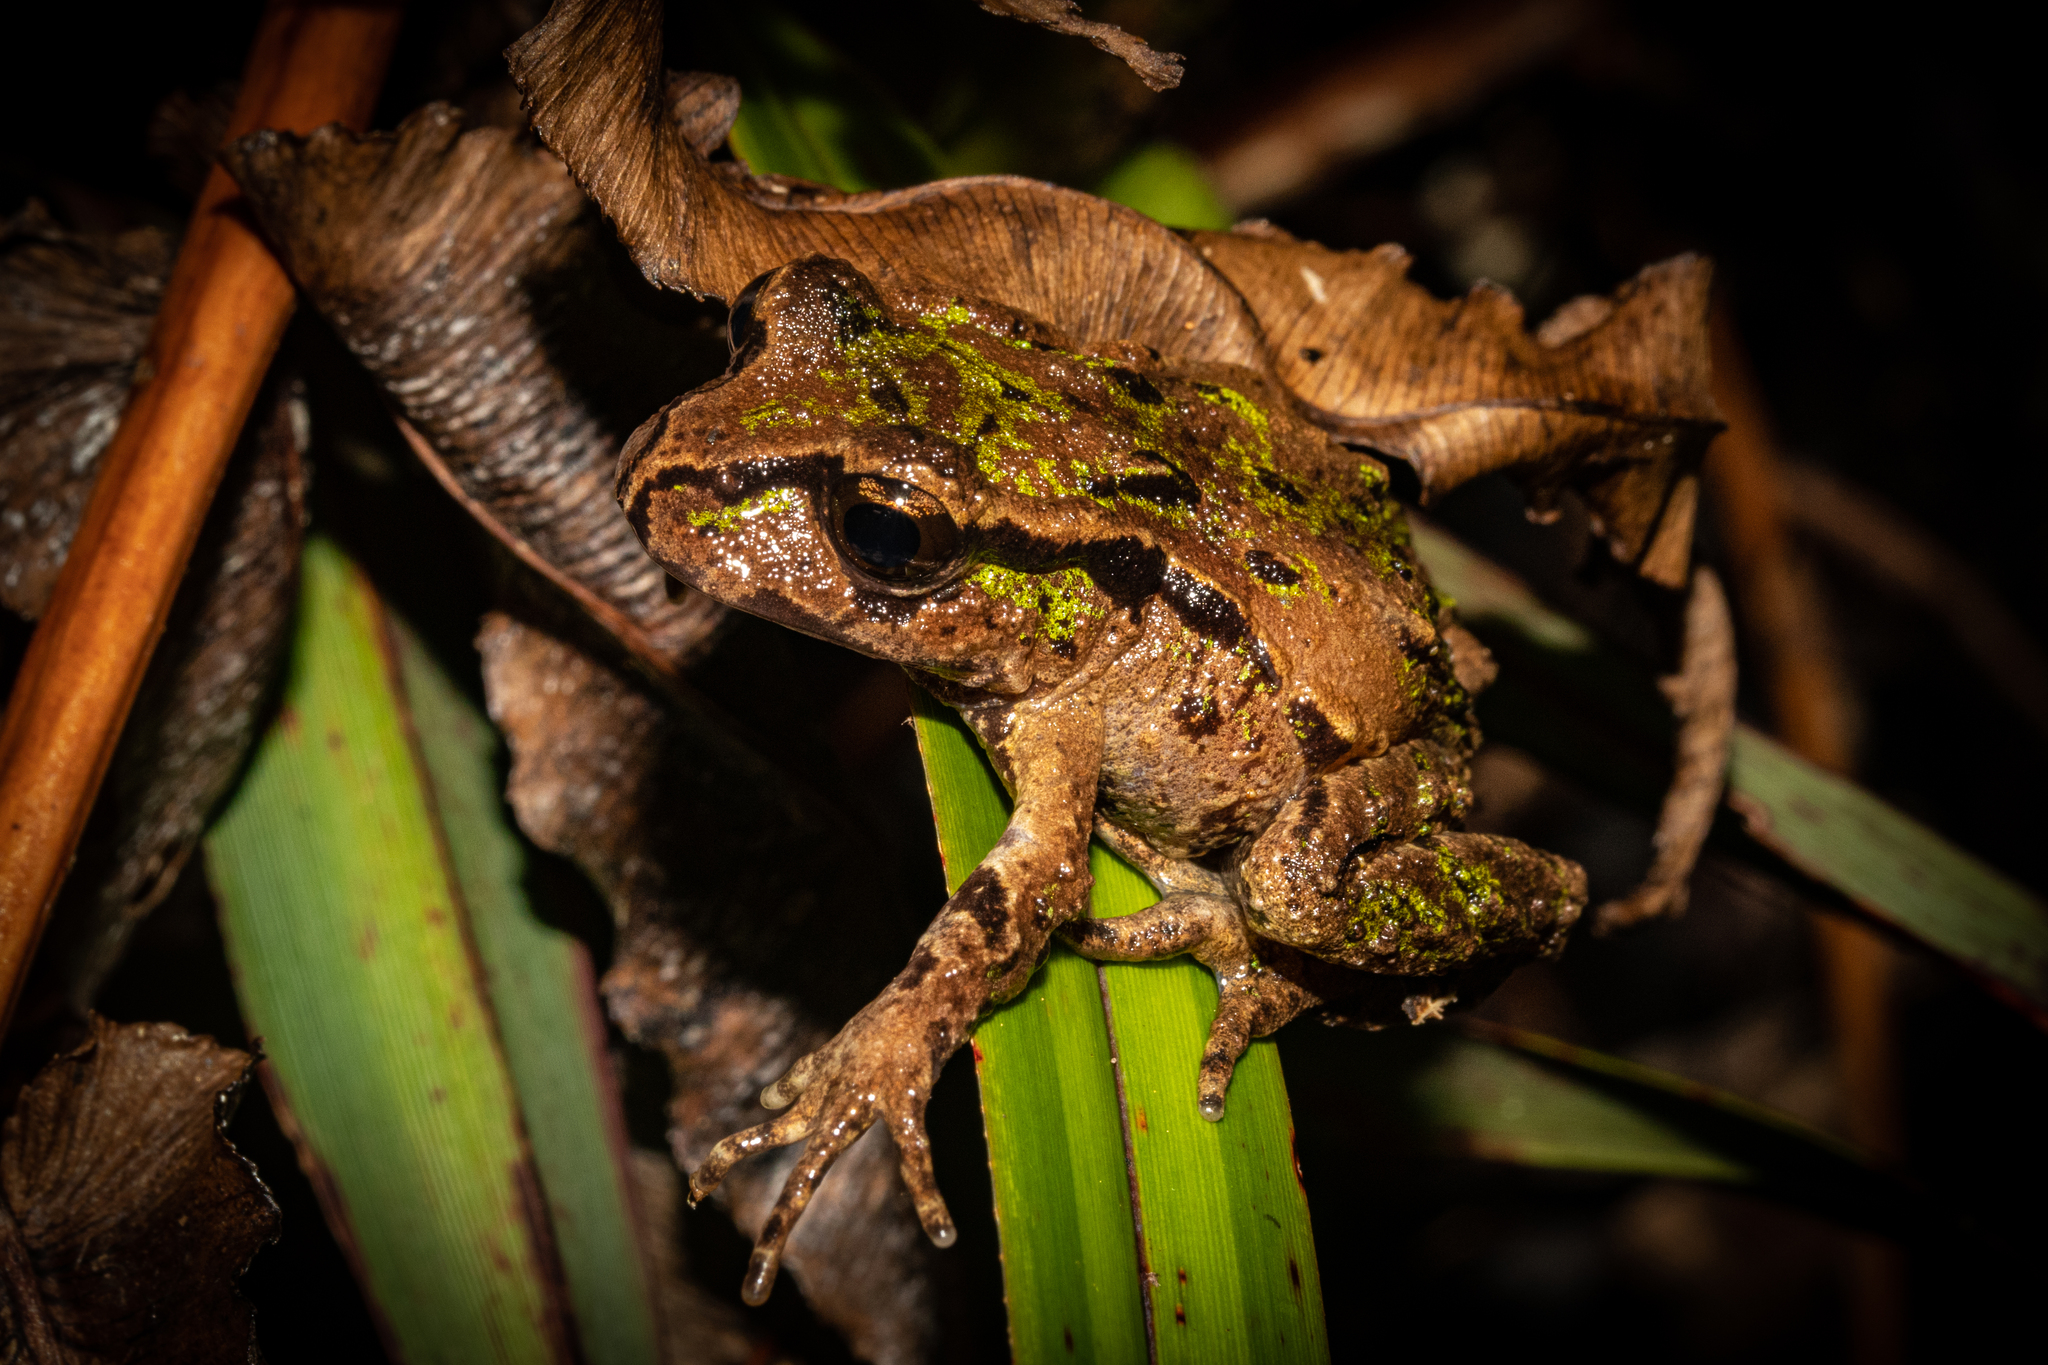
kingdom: Animalia
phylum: Chordata
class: Amphibia
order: Anura
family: Leiopelmatidae
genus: Leiopelma
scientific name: Leiopelma archeyi
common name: Archey's frog
